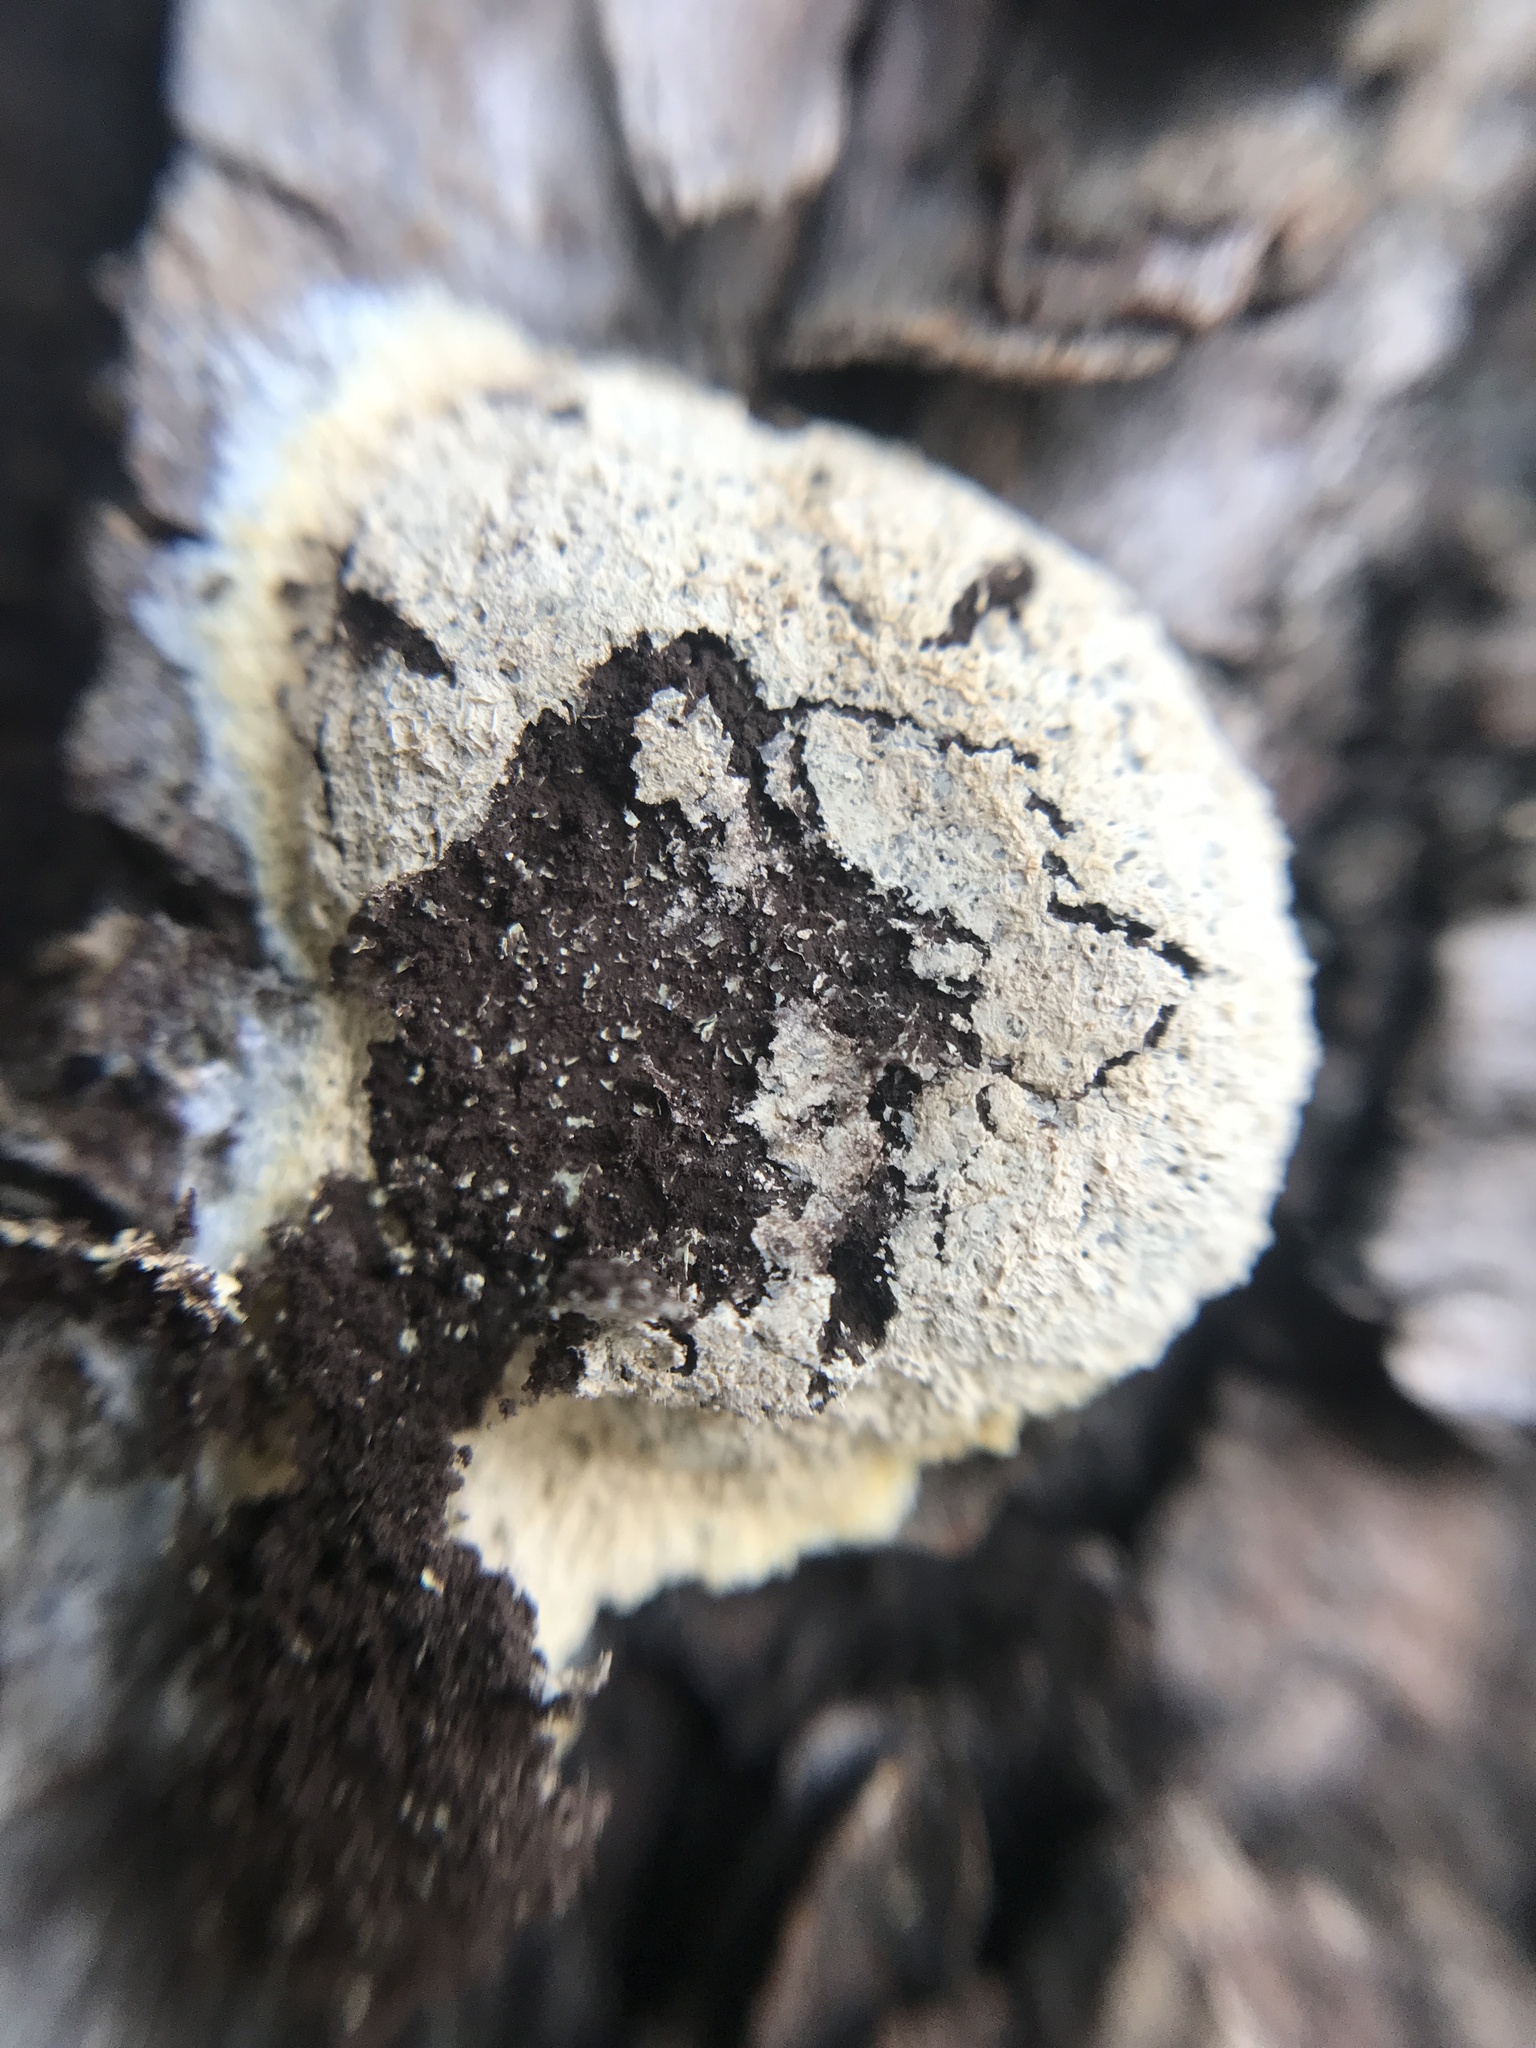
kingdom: Protozoa
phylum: Mycetozoa
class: Myxomycetes
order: Physarales
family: Physaraceae
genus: Fuligo
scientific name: Fuligo septica
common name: Dog vomit slime mold
